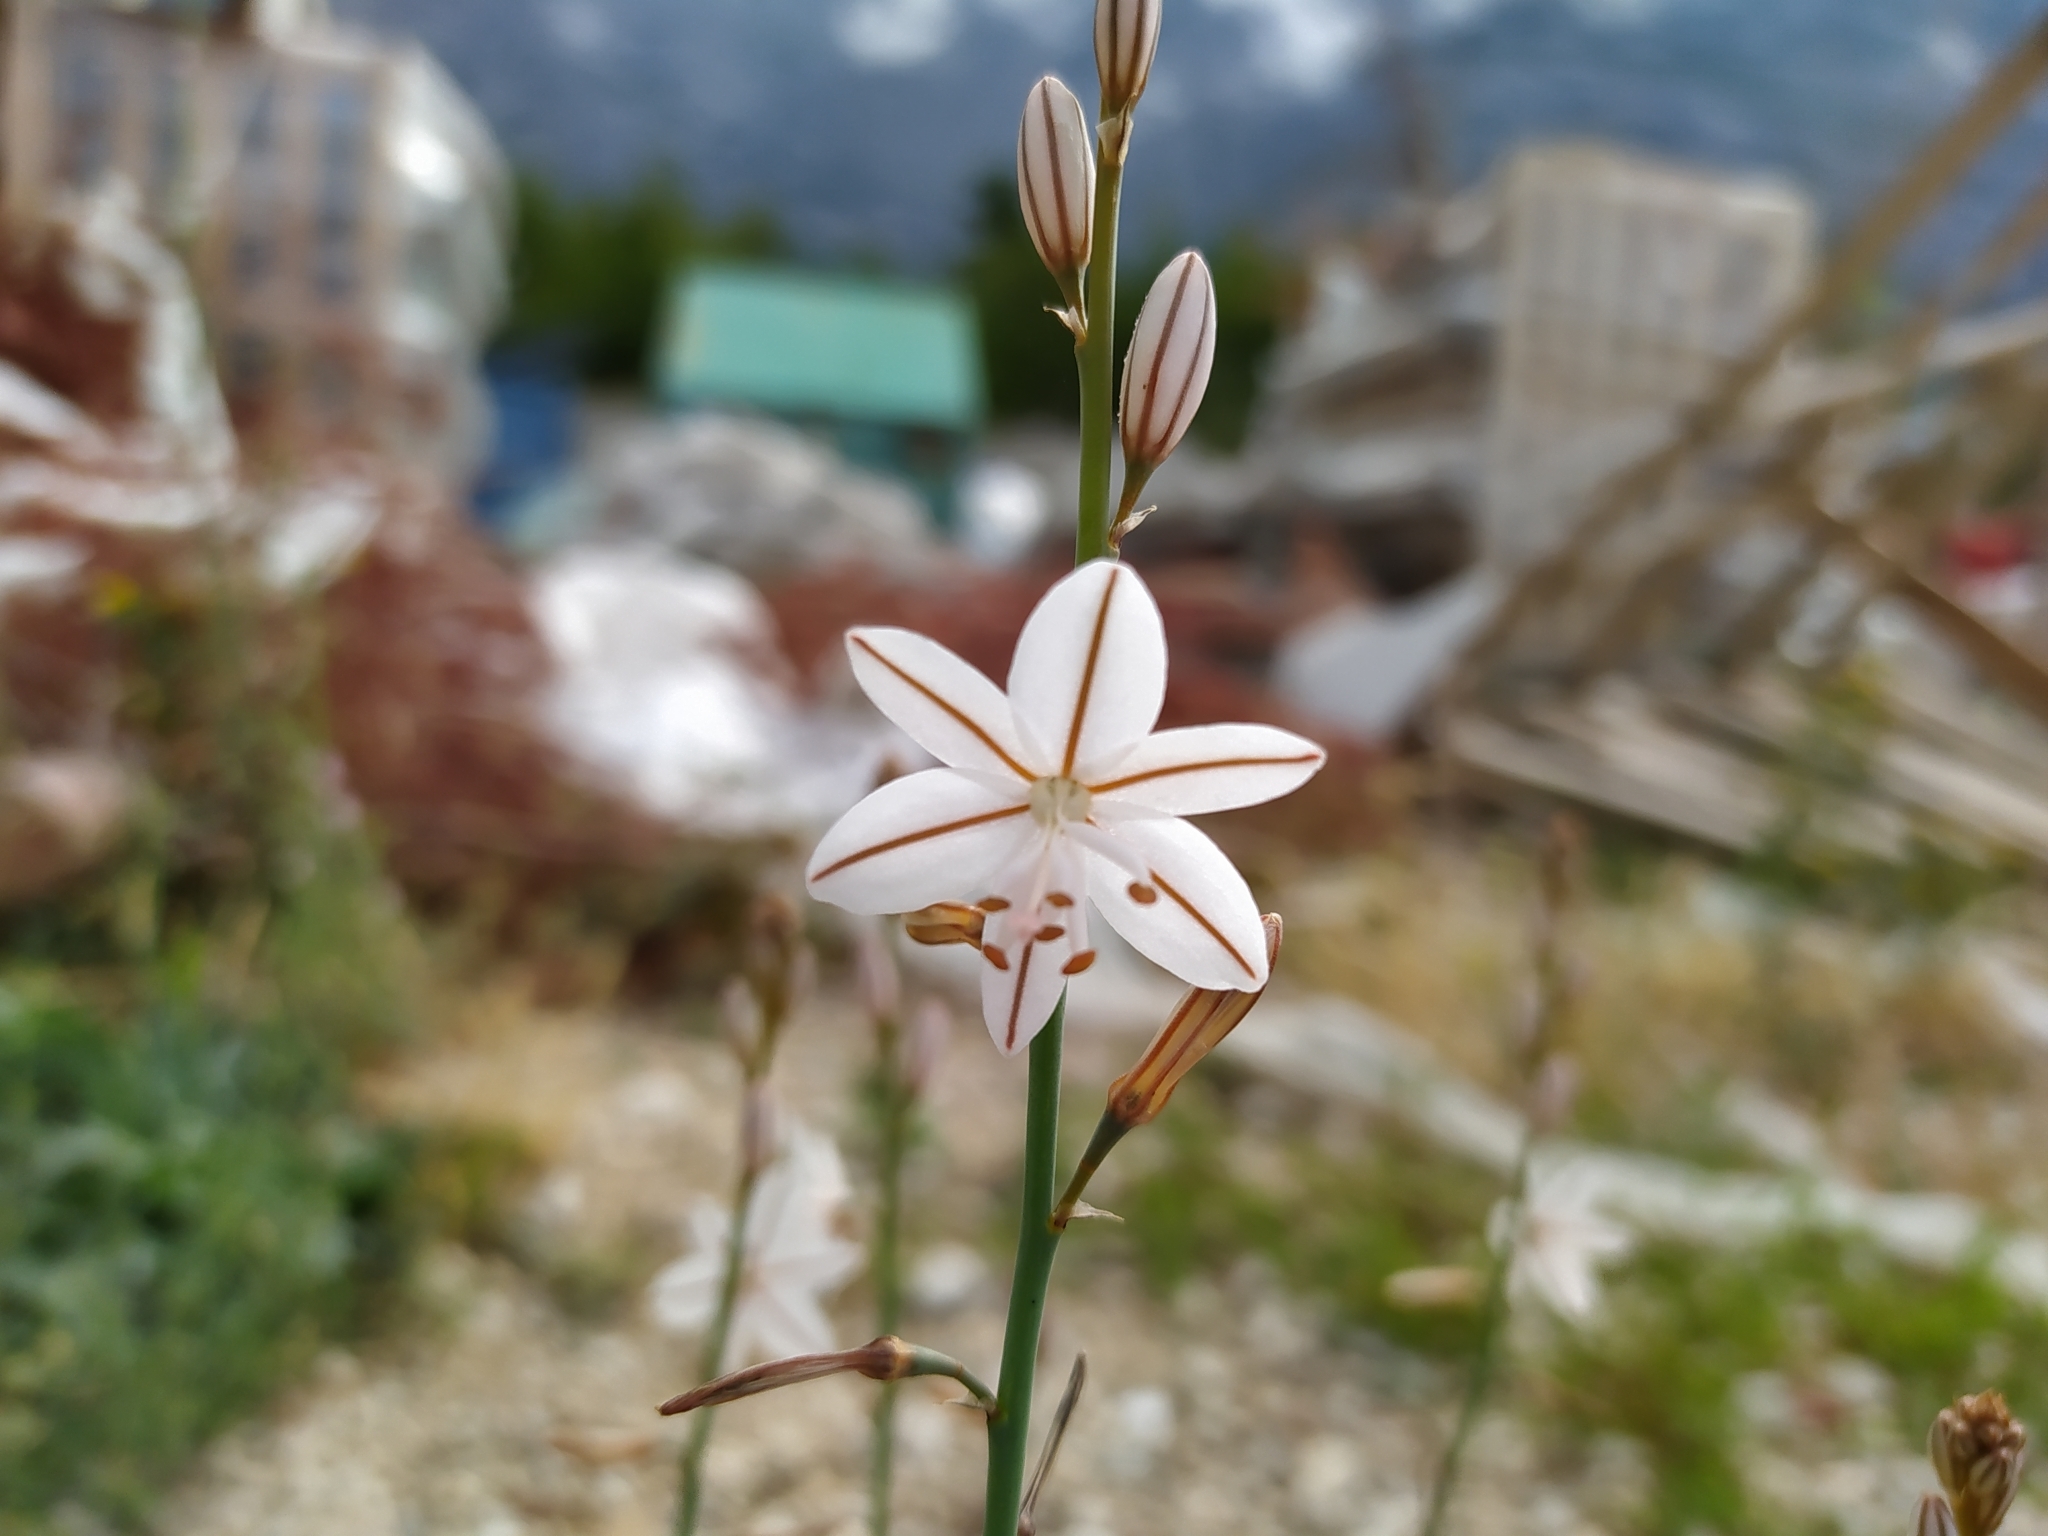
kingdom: Plantae
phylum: Tracheophyta
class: Liliopsida
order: Asparagales
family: Asphodelaceae
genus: Asphodelus
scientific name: Asphodelus fistulosus
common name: Onionweed
